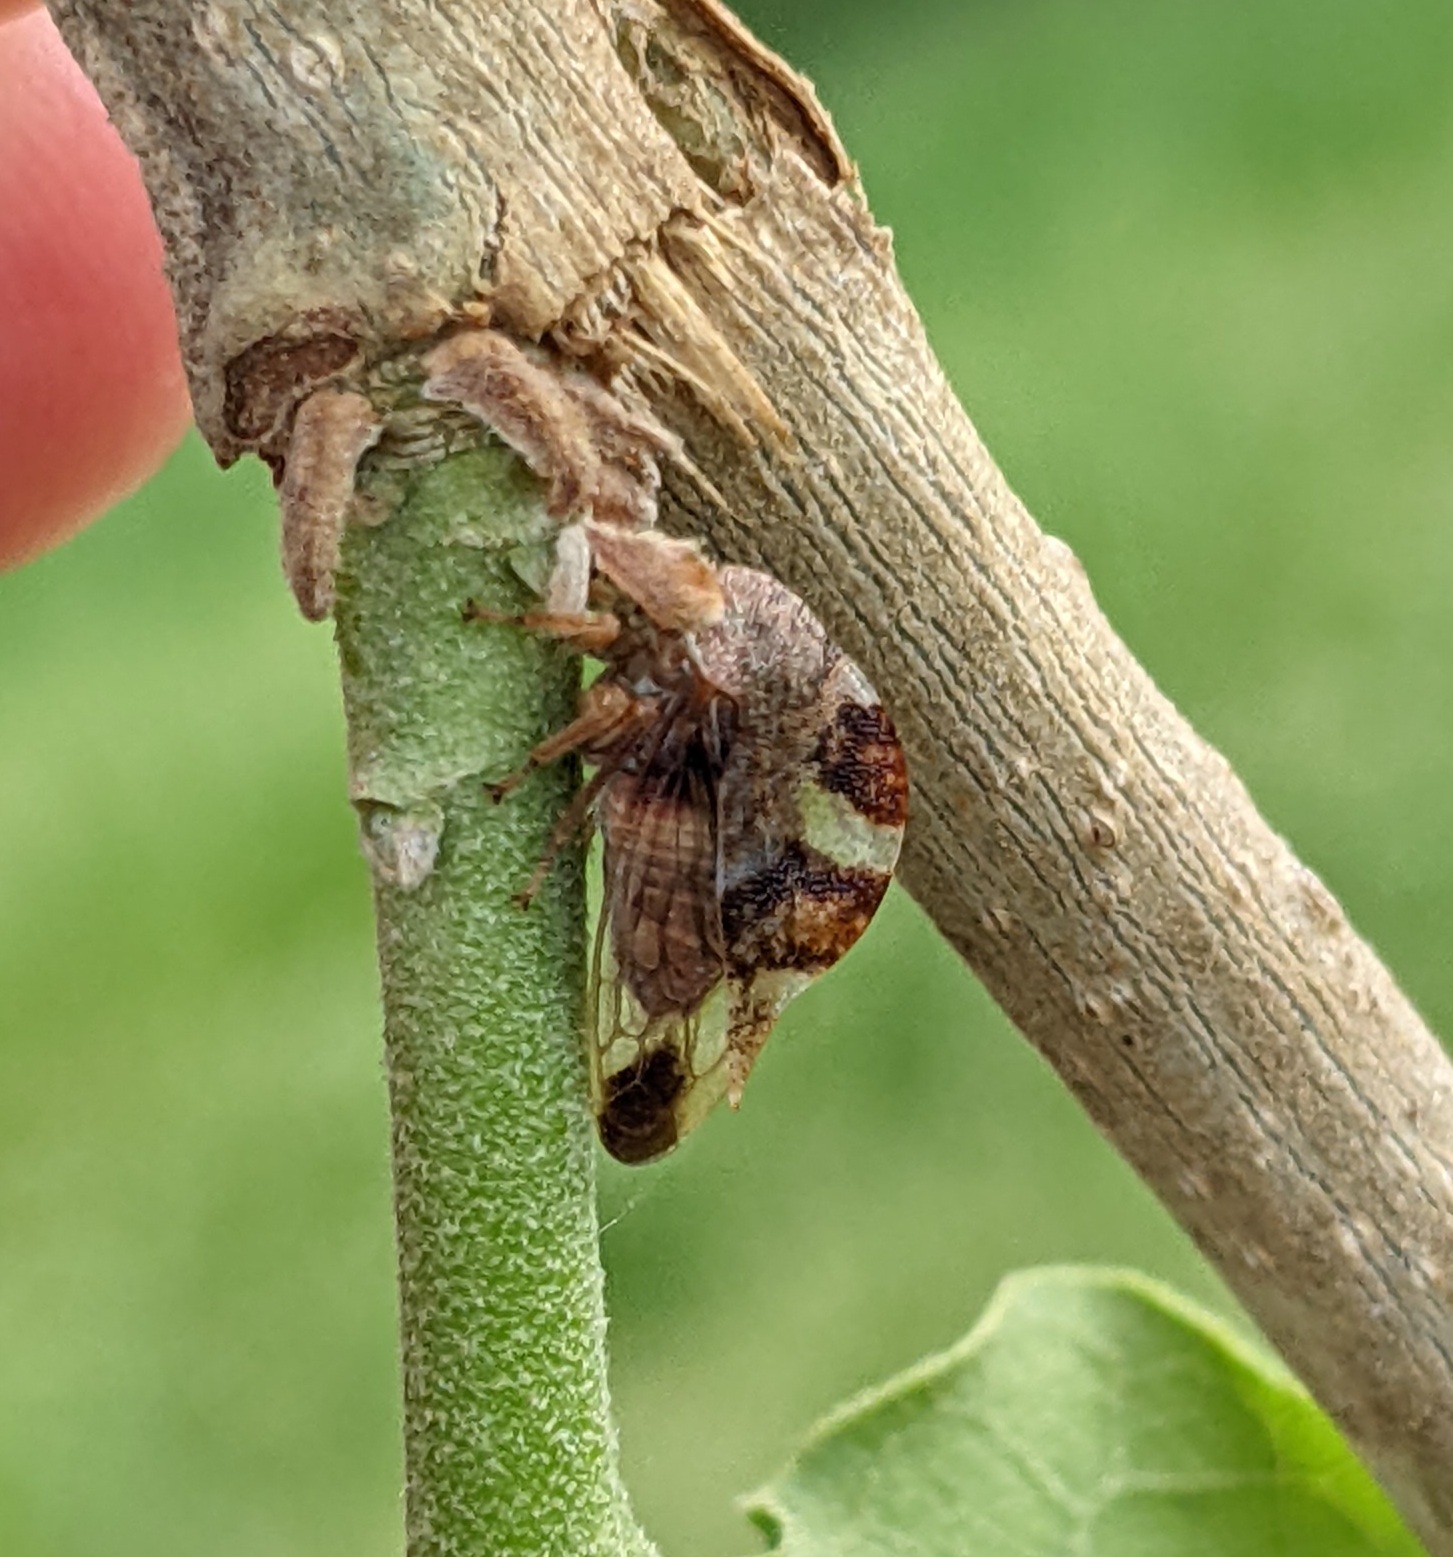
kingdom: Animalia
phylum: Arthropoda
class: Insecta
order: Hemiptera
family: Membracidae
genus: Cyrtolobus
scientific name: Cyrtolobus tuberosa
